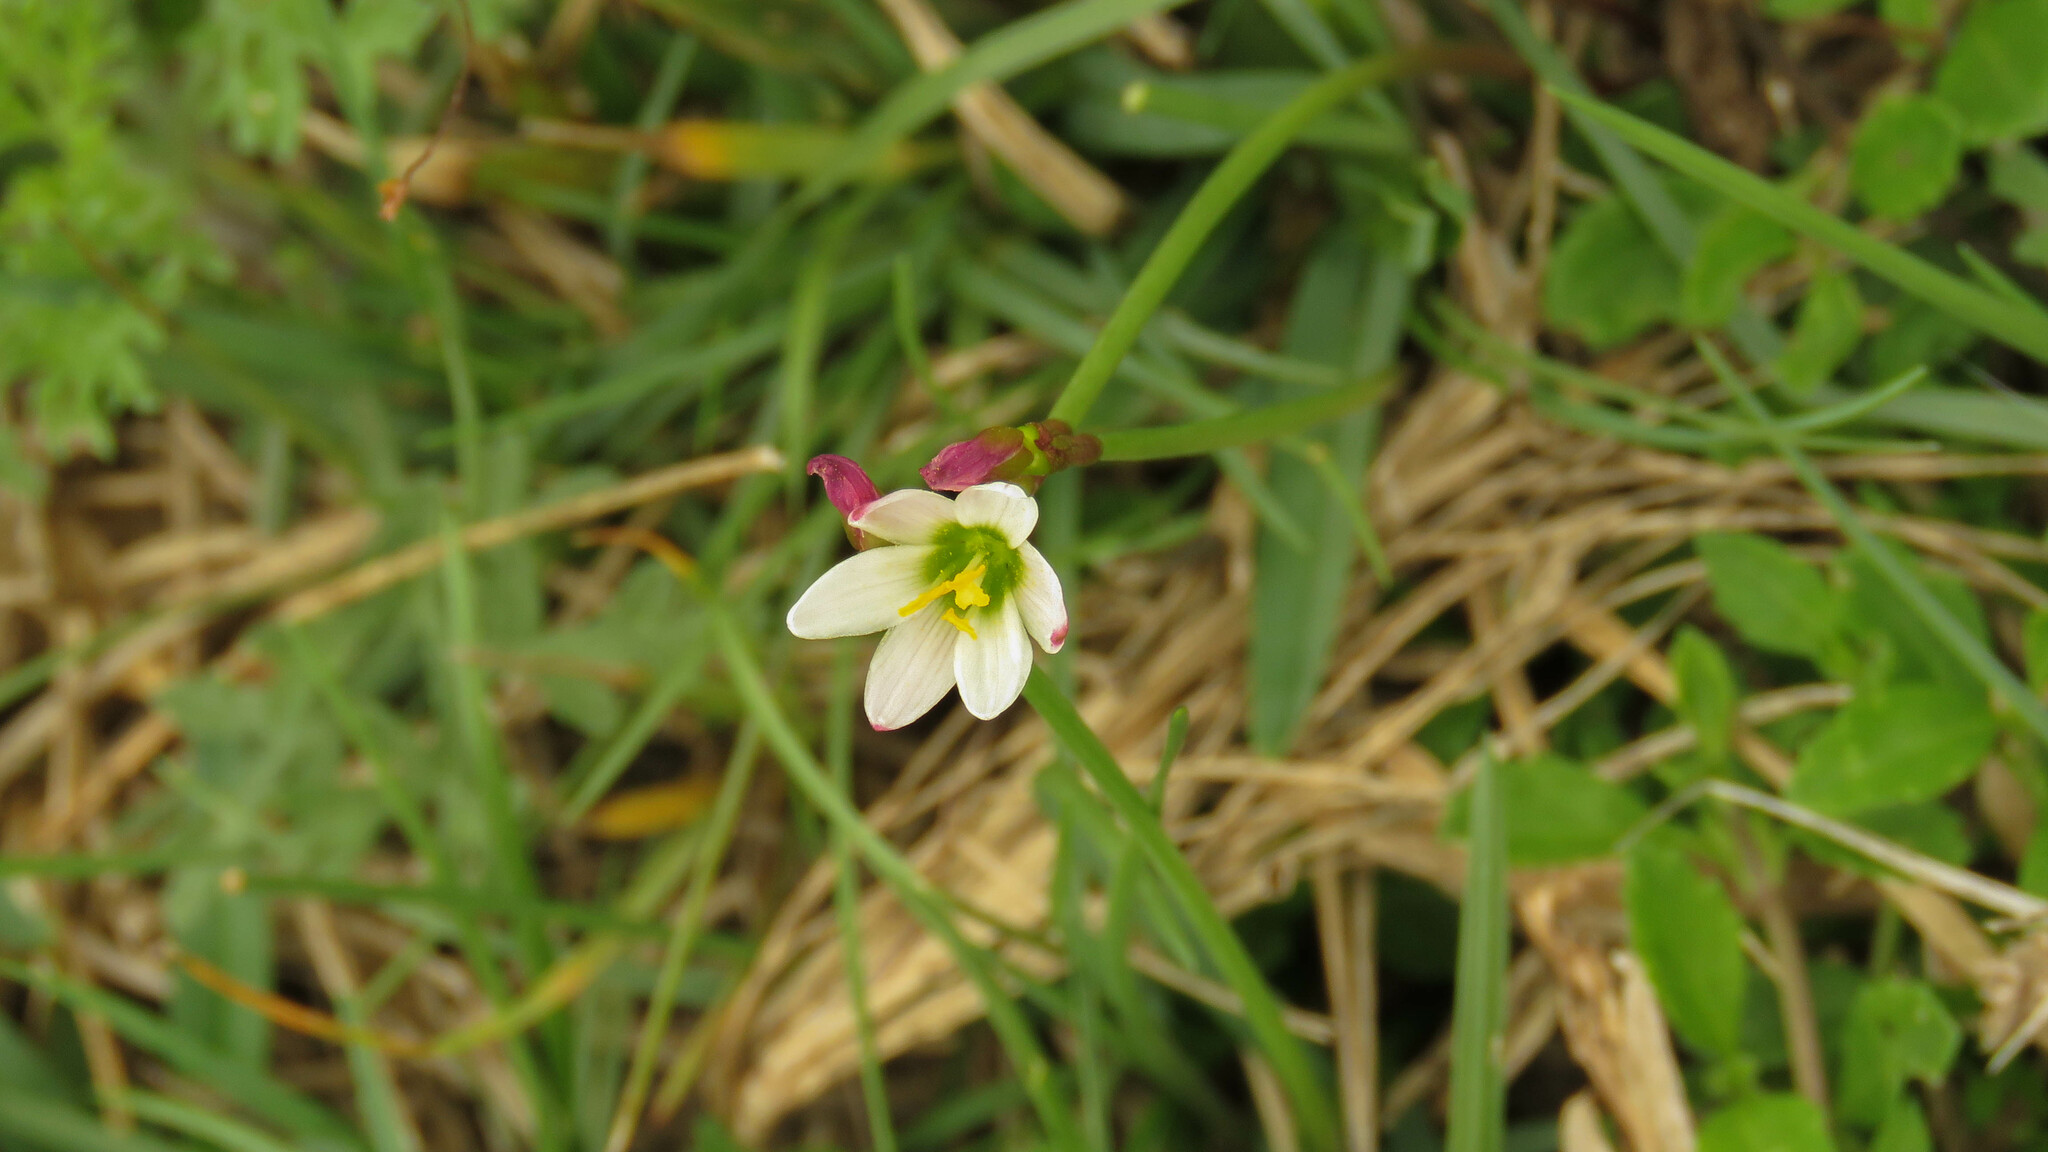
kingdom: Plantae
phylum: Tracheophyta
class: Liliopsida
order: Asparagales
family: Amaryllidaceae
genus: Zephyranthes
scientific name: Zephyranthes minima
